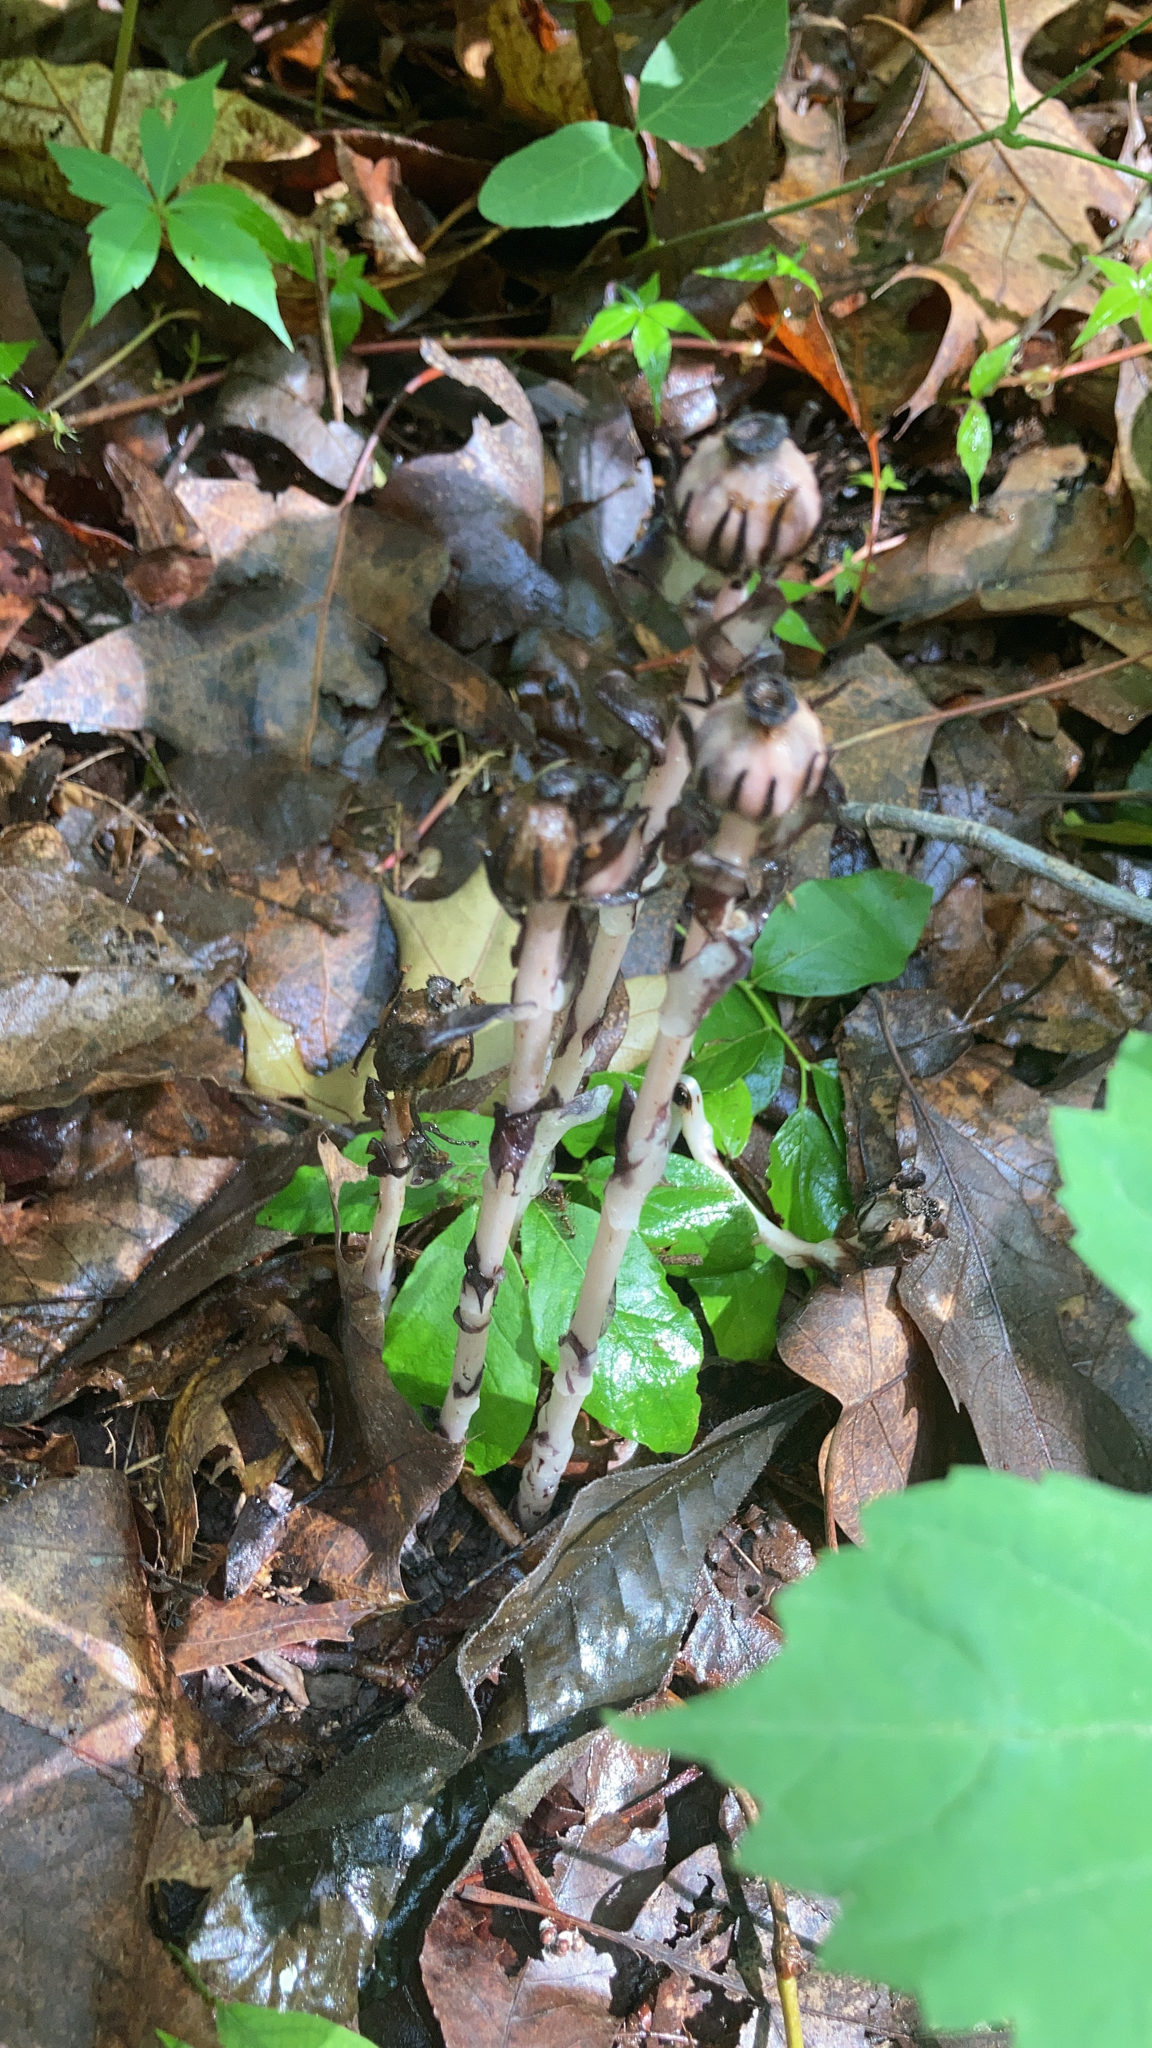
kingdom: Plantae
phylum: Tracheophyta
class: Magnoliopsida
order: Ericales
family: Ericaceae
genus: Monotropa
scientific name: Monotropa uniflora
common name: Convulsion root
